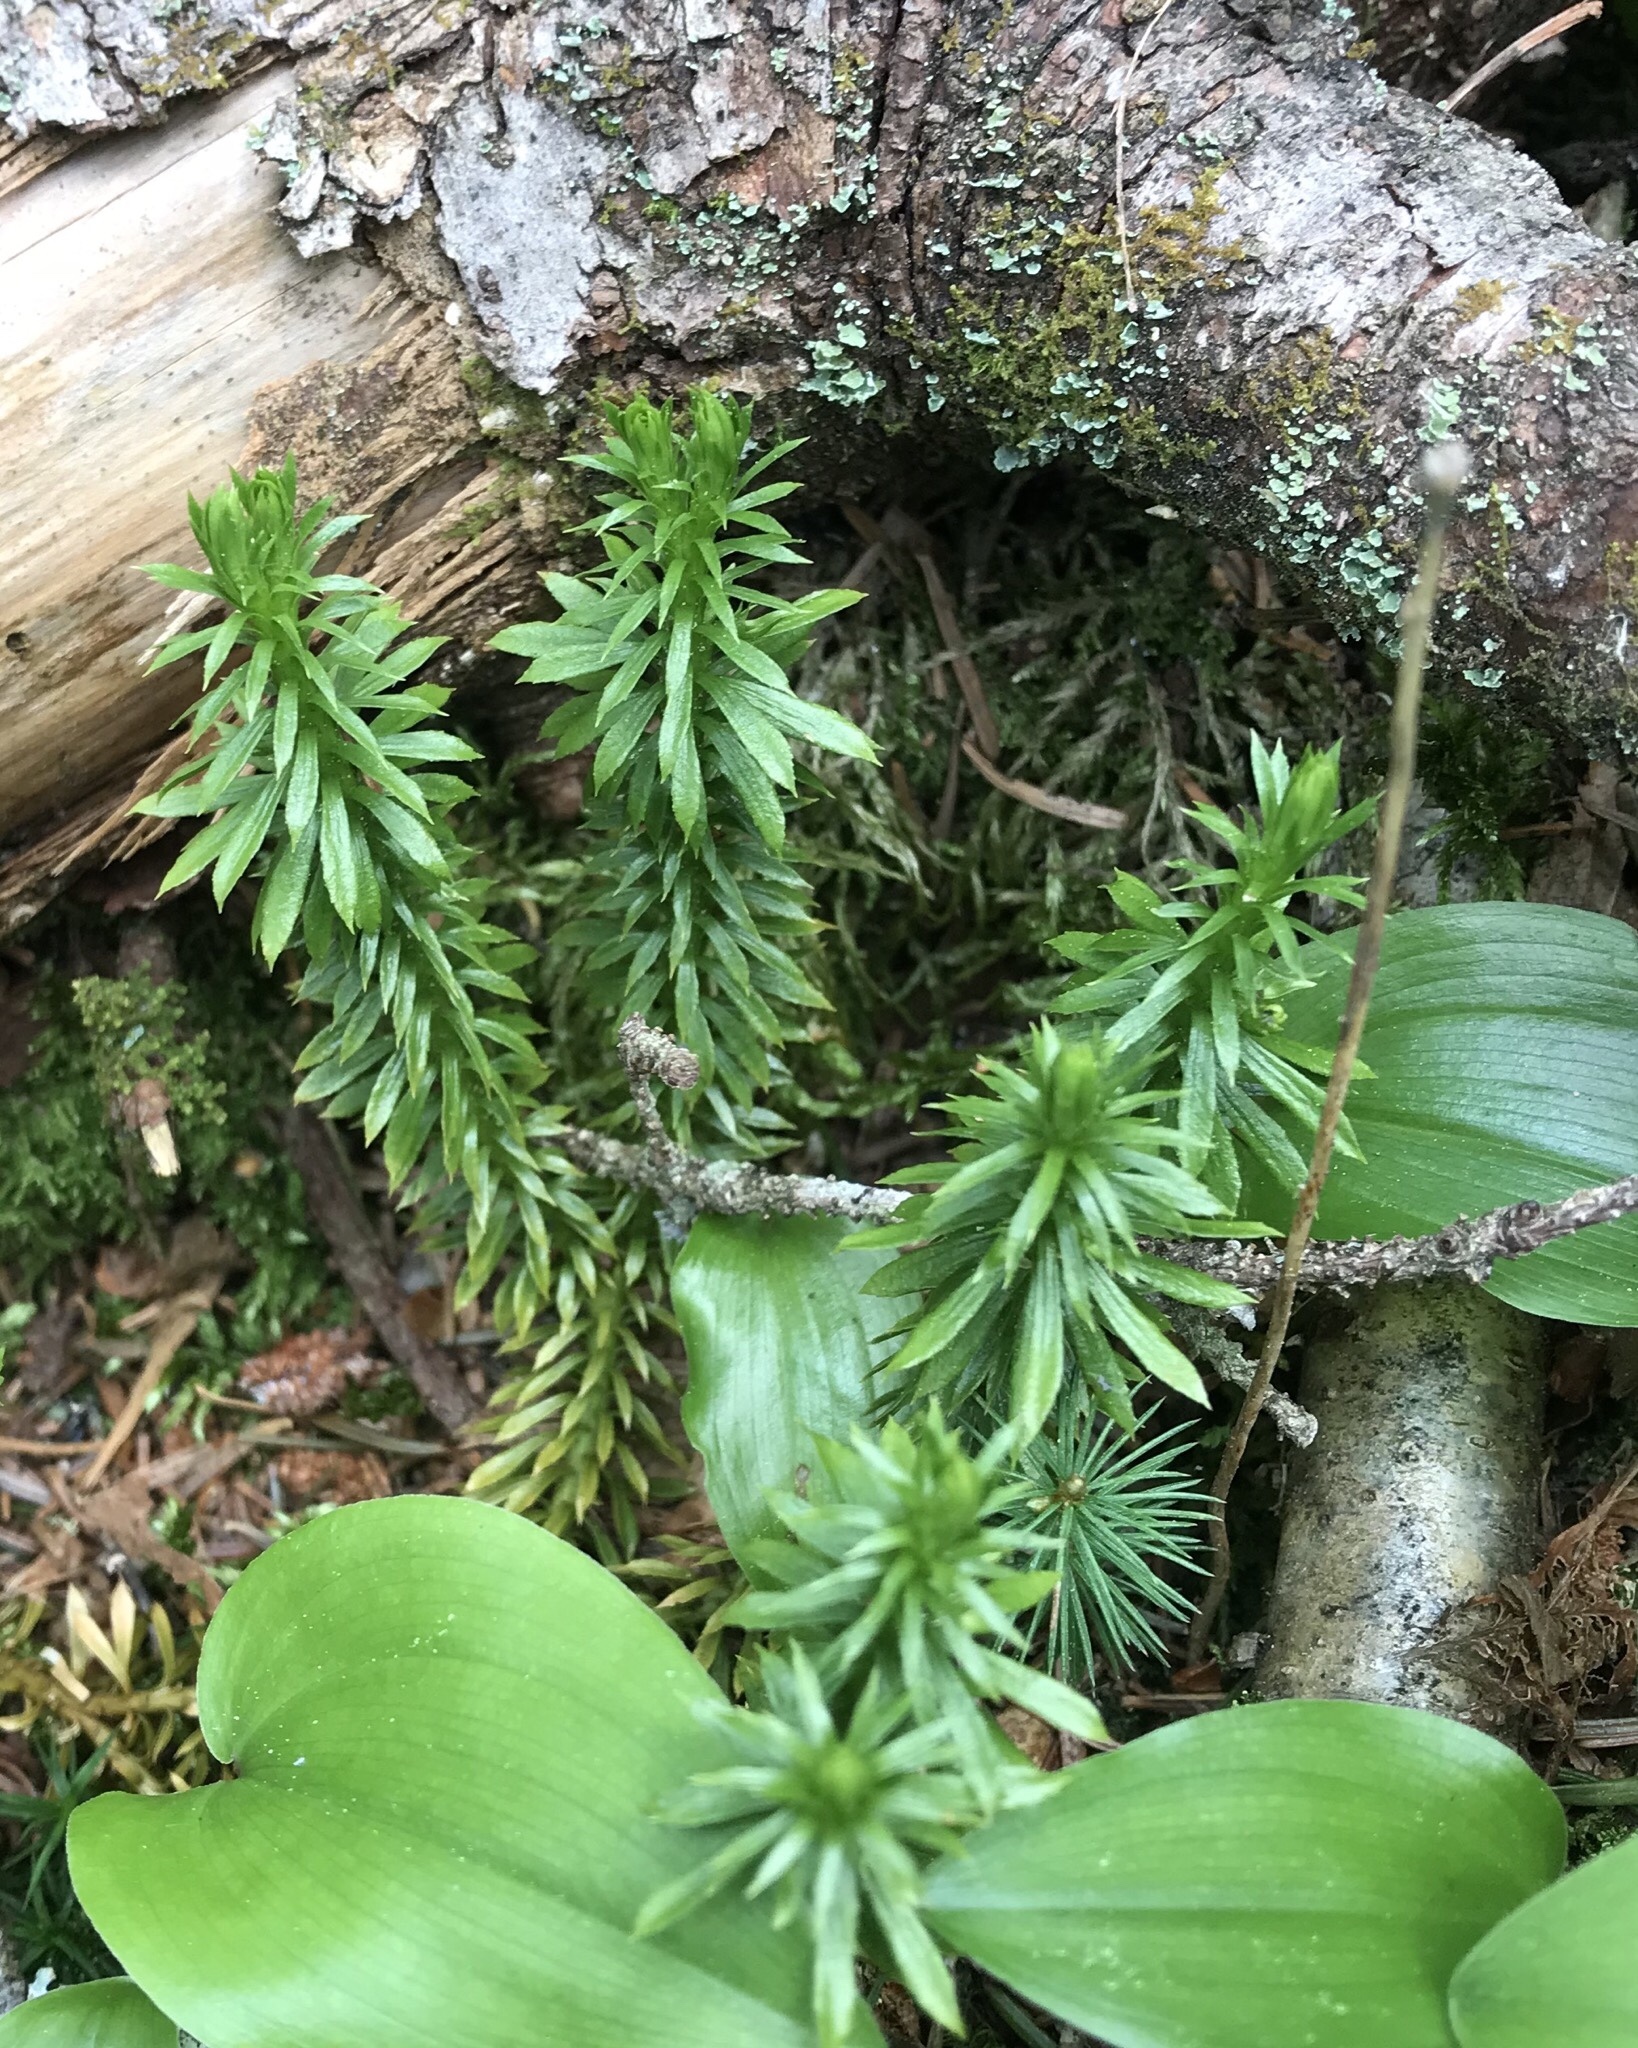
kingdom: Plantae
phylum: Tracheophyta
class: Lycopodiopsida
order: Lycopodiales
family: Lycopodiaceae
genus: Huperzia
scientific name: Huperzia lucidula
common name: Shining clubmoss
